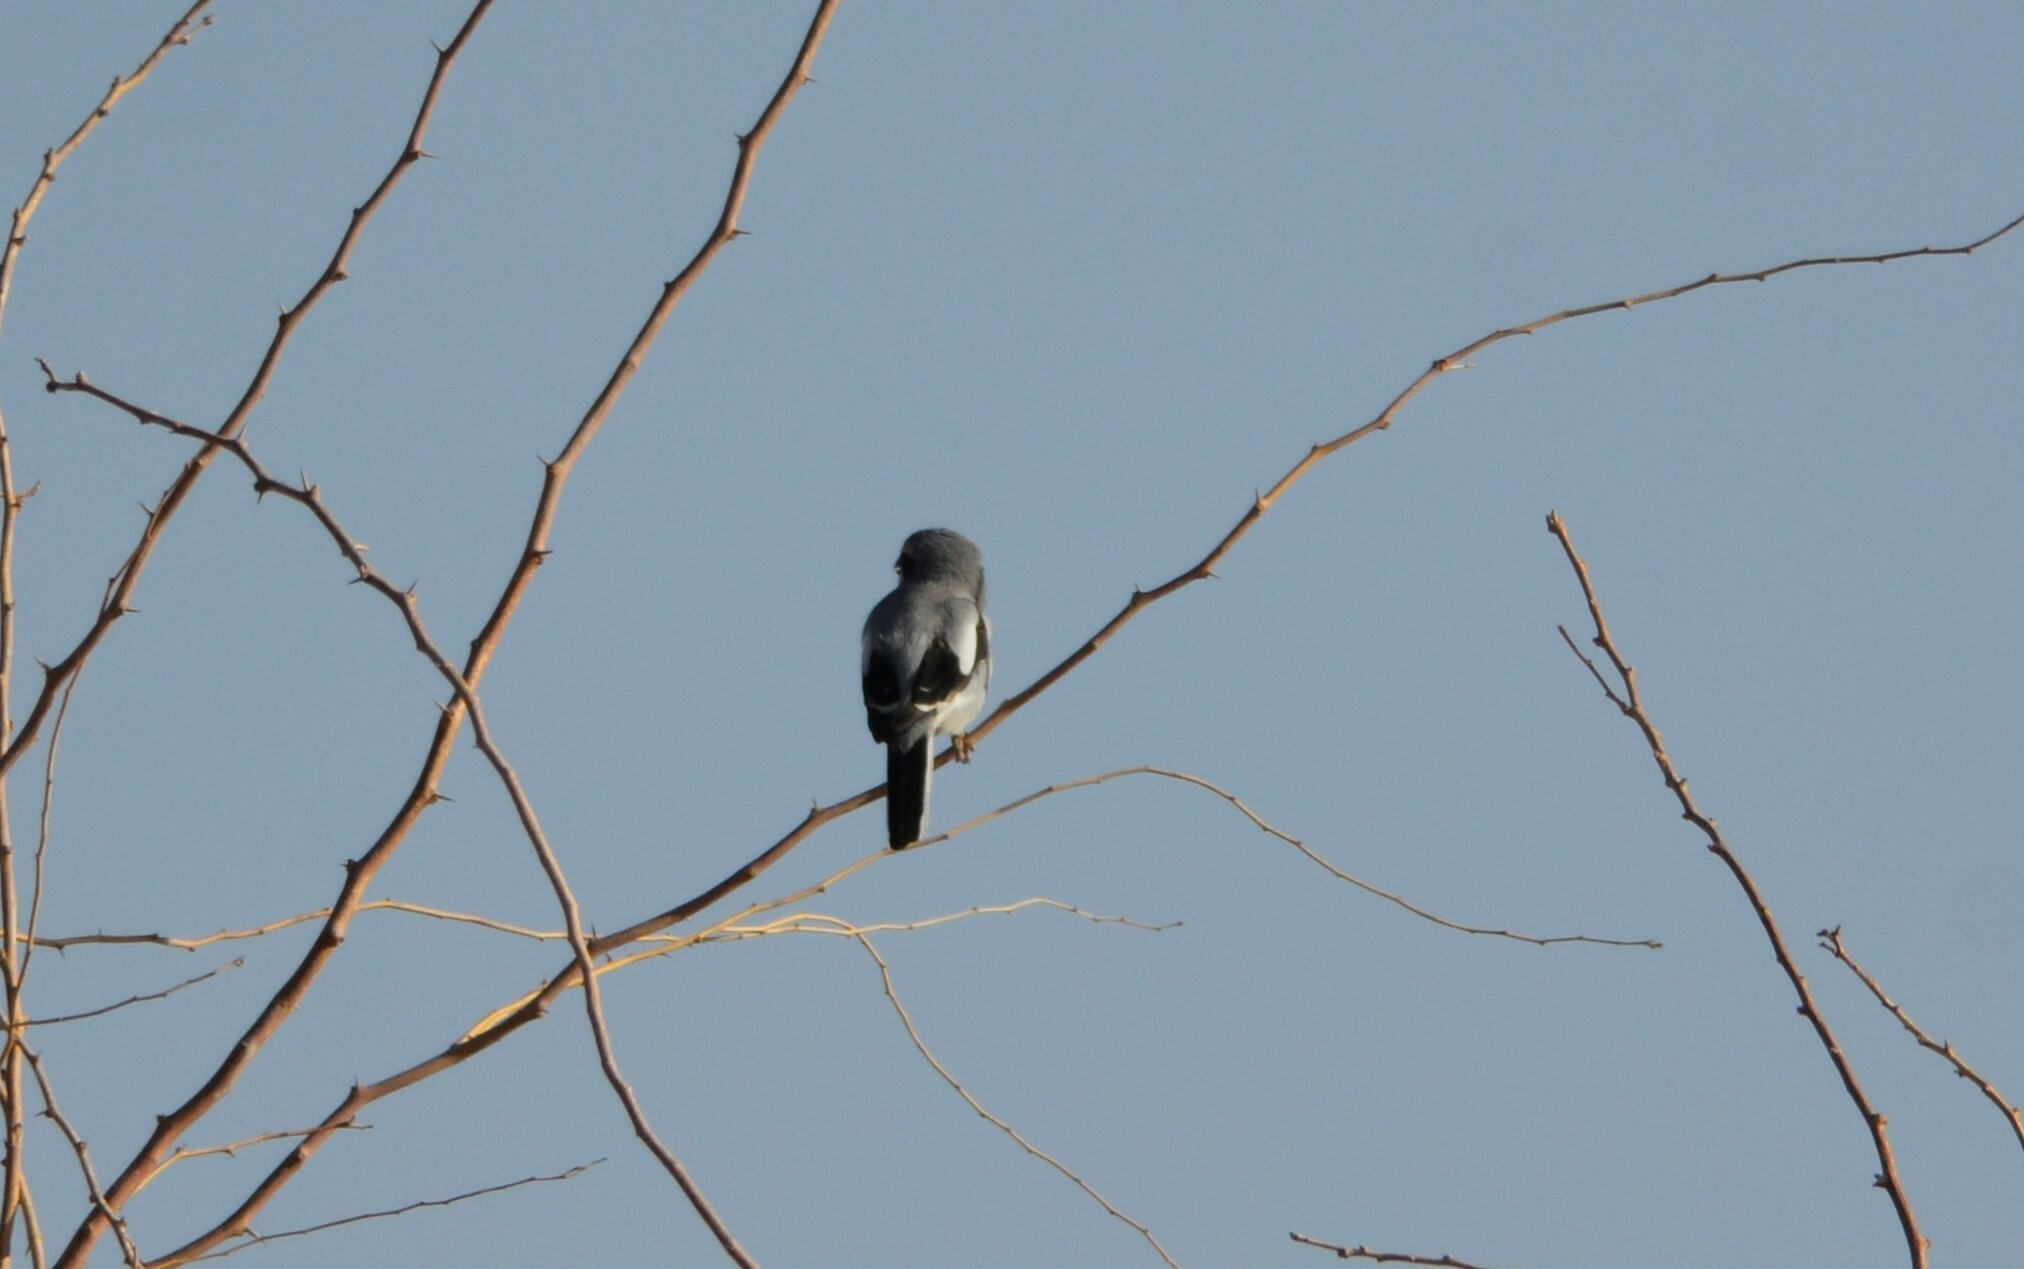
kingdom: Animalia
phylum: Chordata
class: Aves
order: Passeriformes
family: Laniidae
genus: Lanius
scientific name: Lanius excubitor
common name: Great grey shrike
